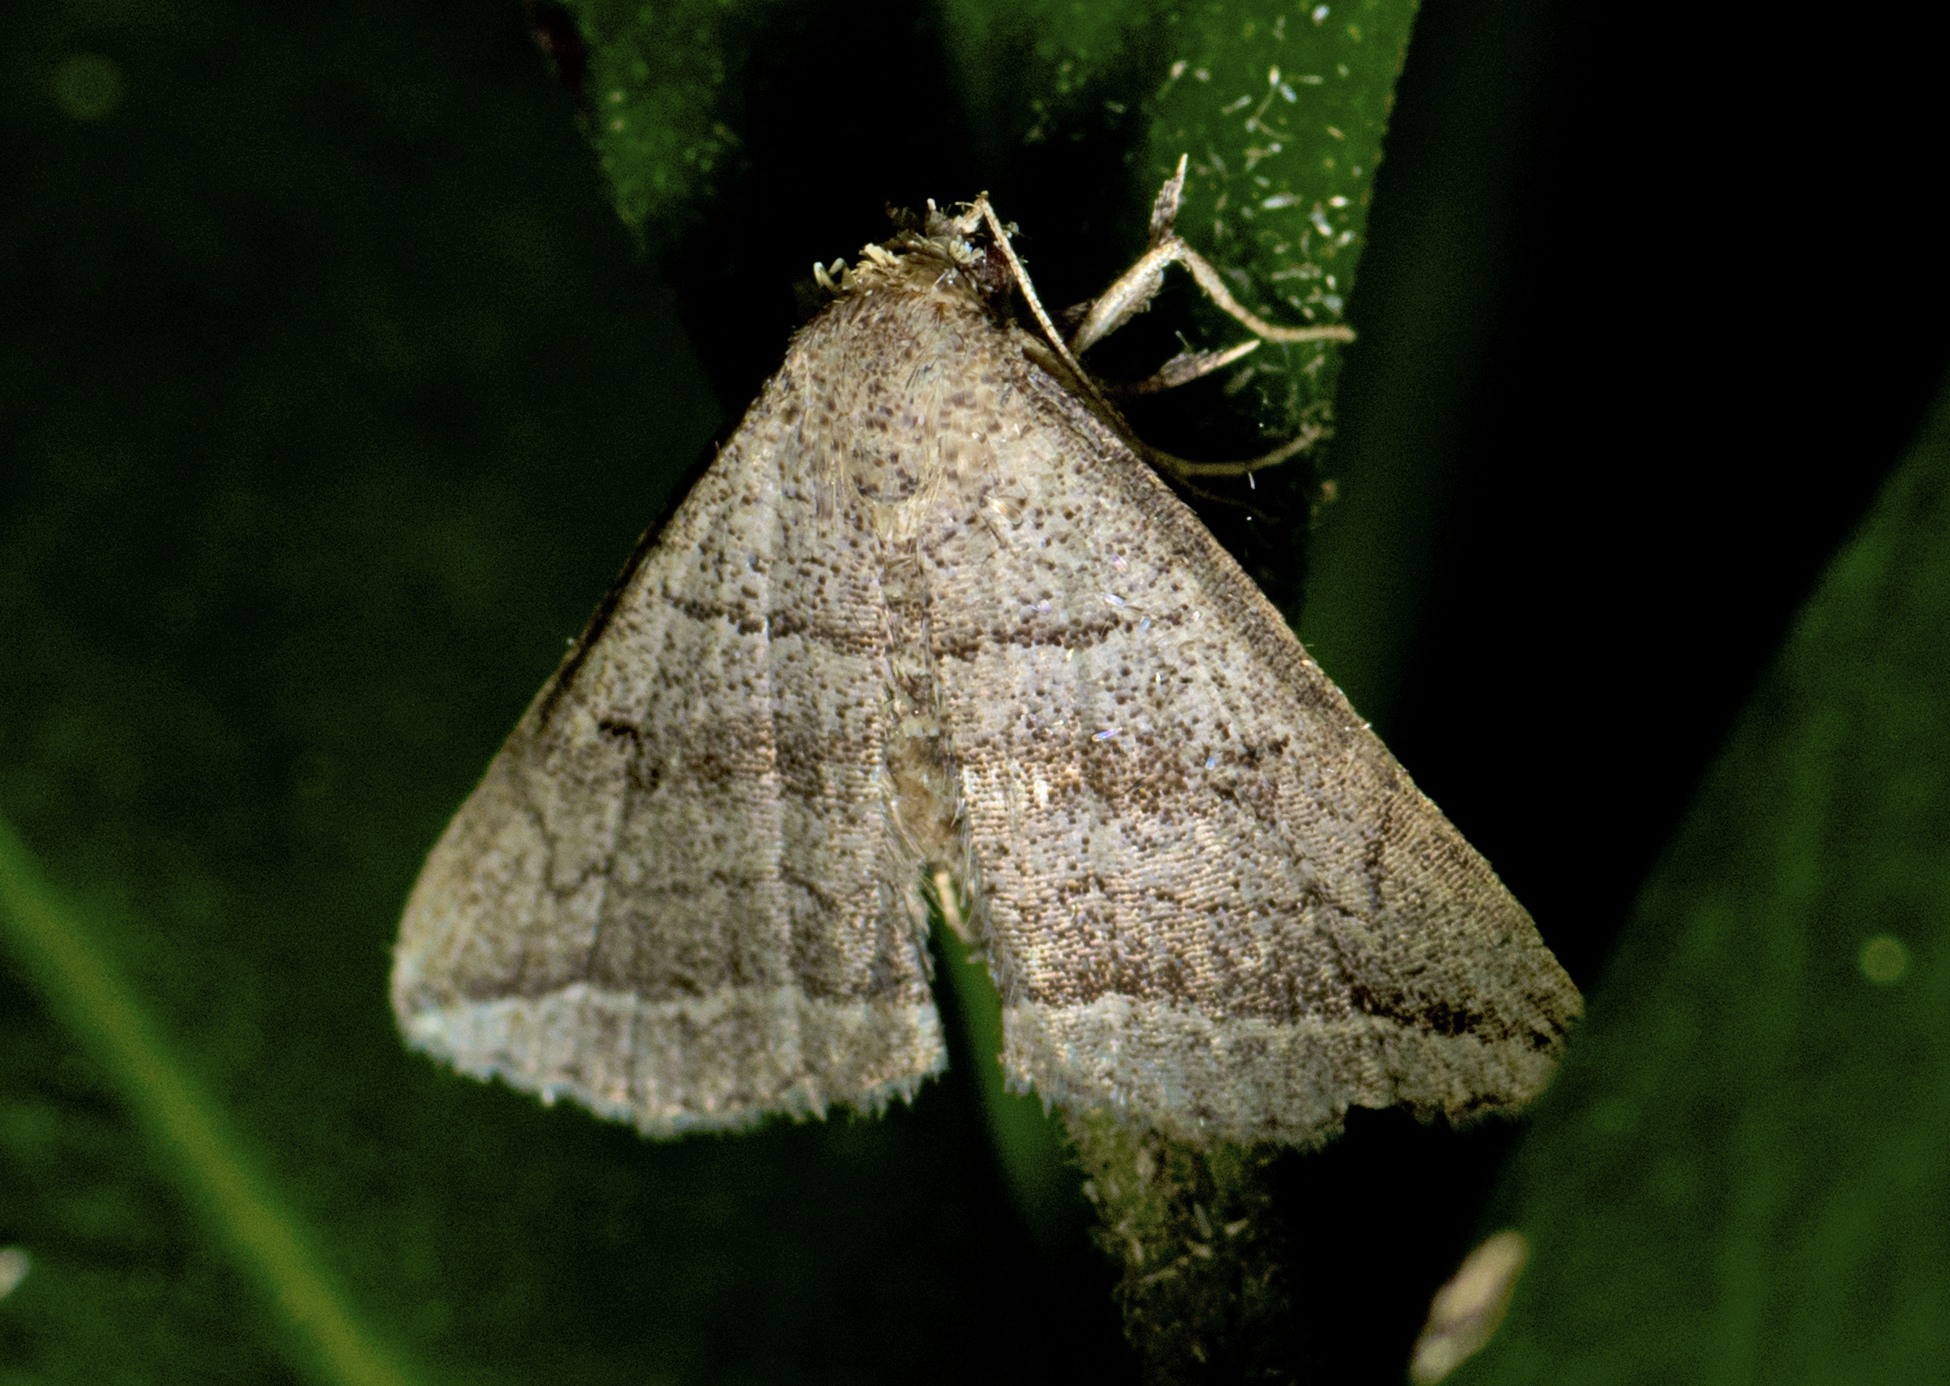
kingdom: Animalia
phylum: Arthropoda
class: Insecta
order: Lepidoptera
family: Erebidae
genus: Lysimelia
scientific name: Lysimelia lenis
